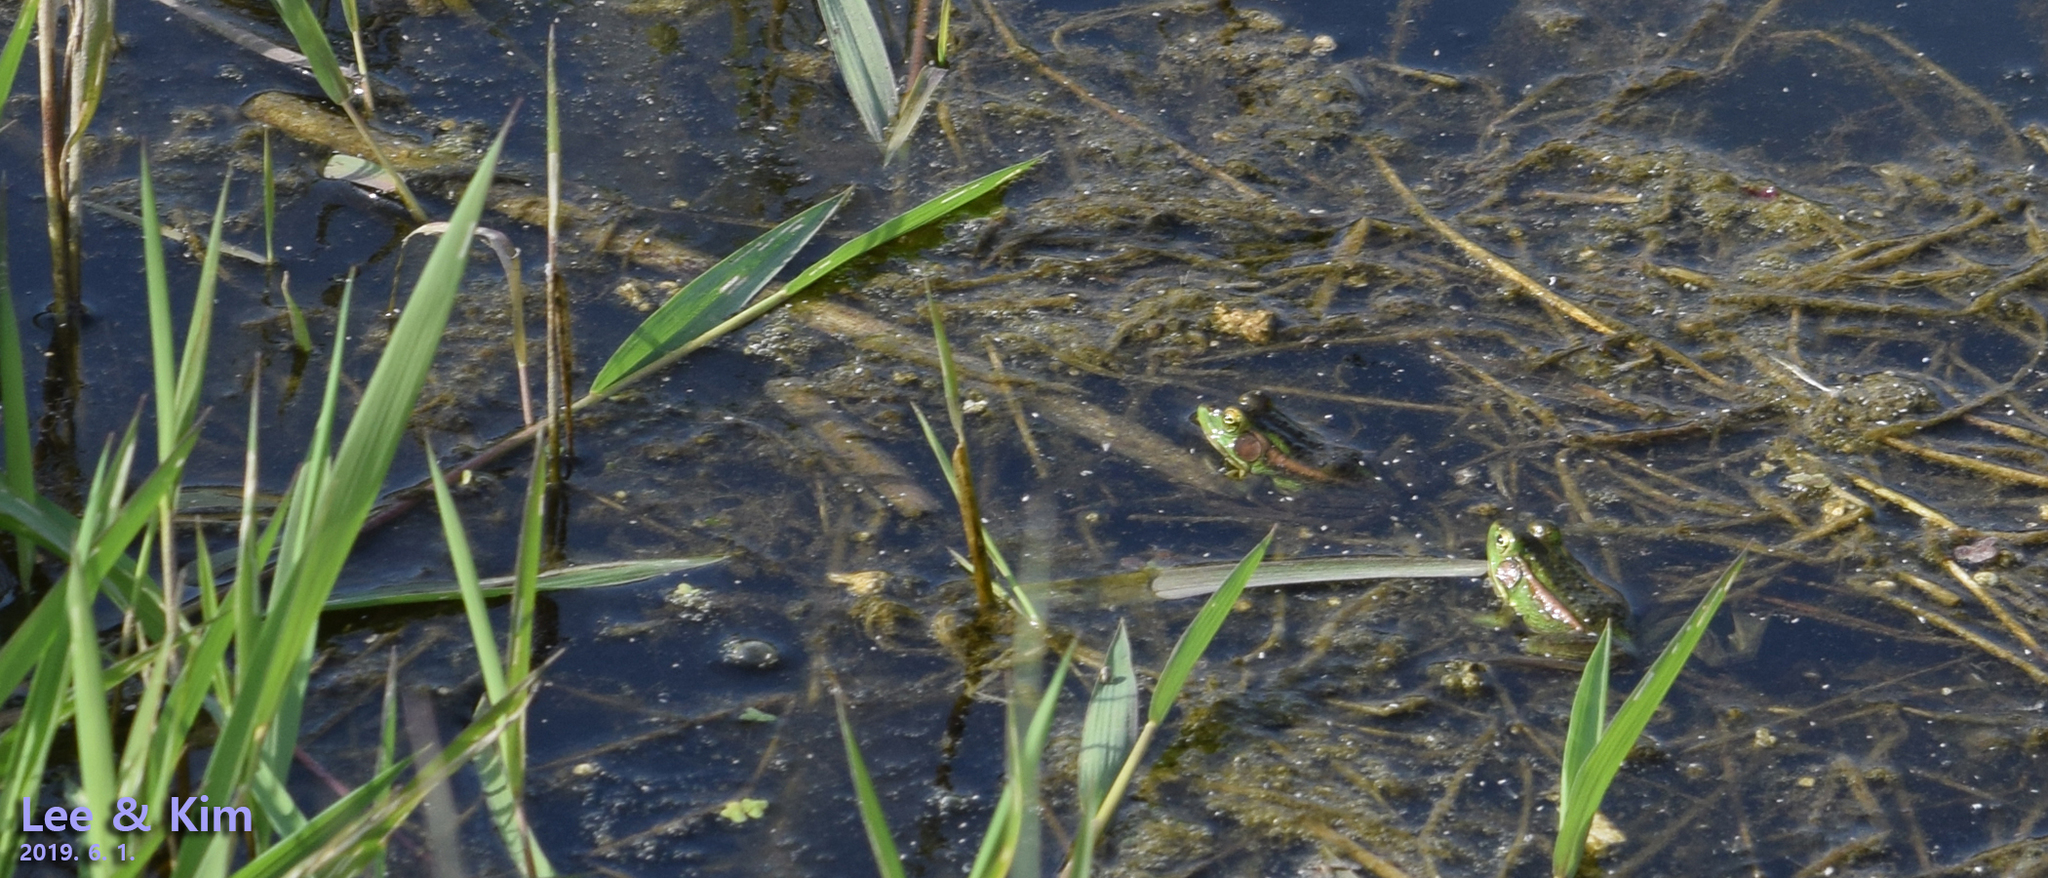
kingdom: Animalia
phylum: Chordata
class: Amphibia
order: Anura
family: Ranidae
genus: Pelophylax
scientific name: Pelophylax chosenicus
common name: Gold-spotted pond frog
